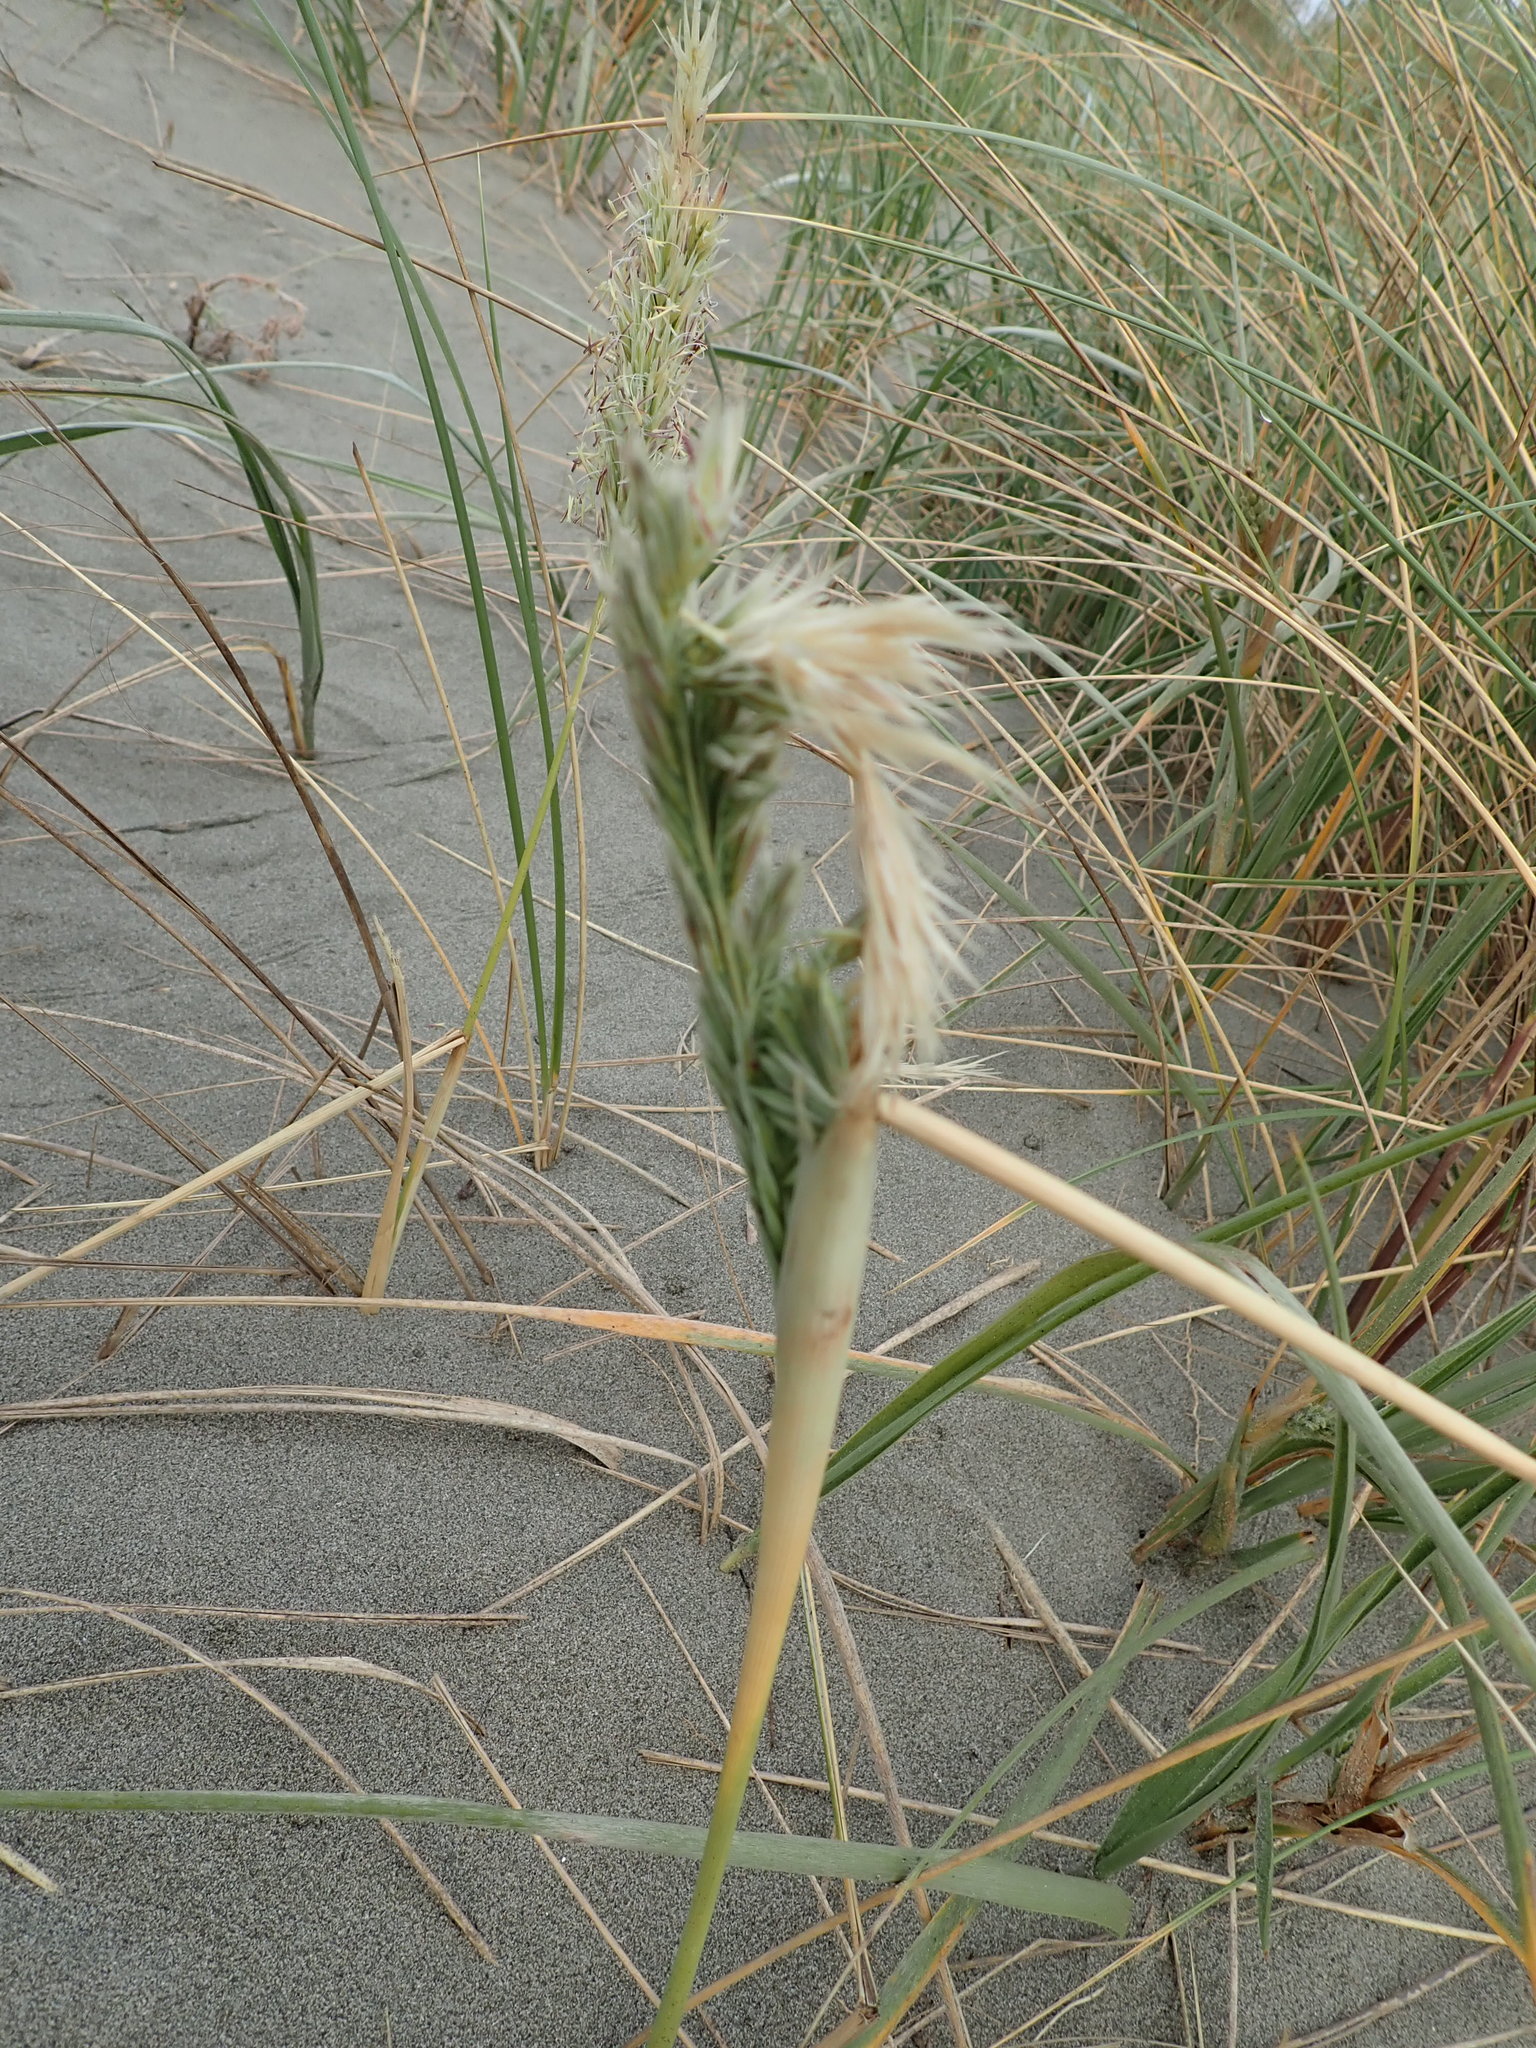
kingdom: Plantae
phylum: Tracheophyta
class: Liliopsida
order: Poales
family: Poaceae
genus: Calamagrostis
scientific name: Calamagrostis arenaria
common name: European beachgrass
